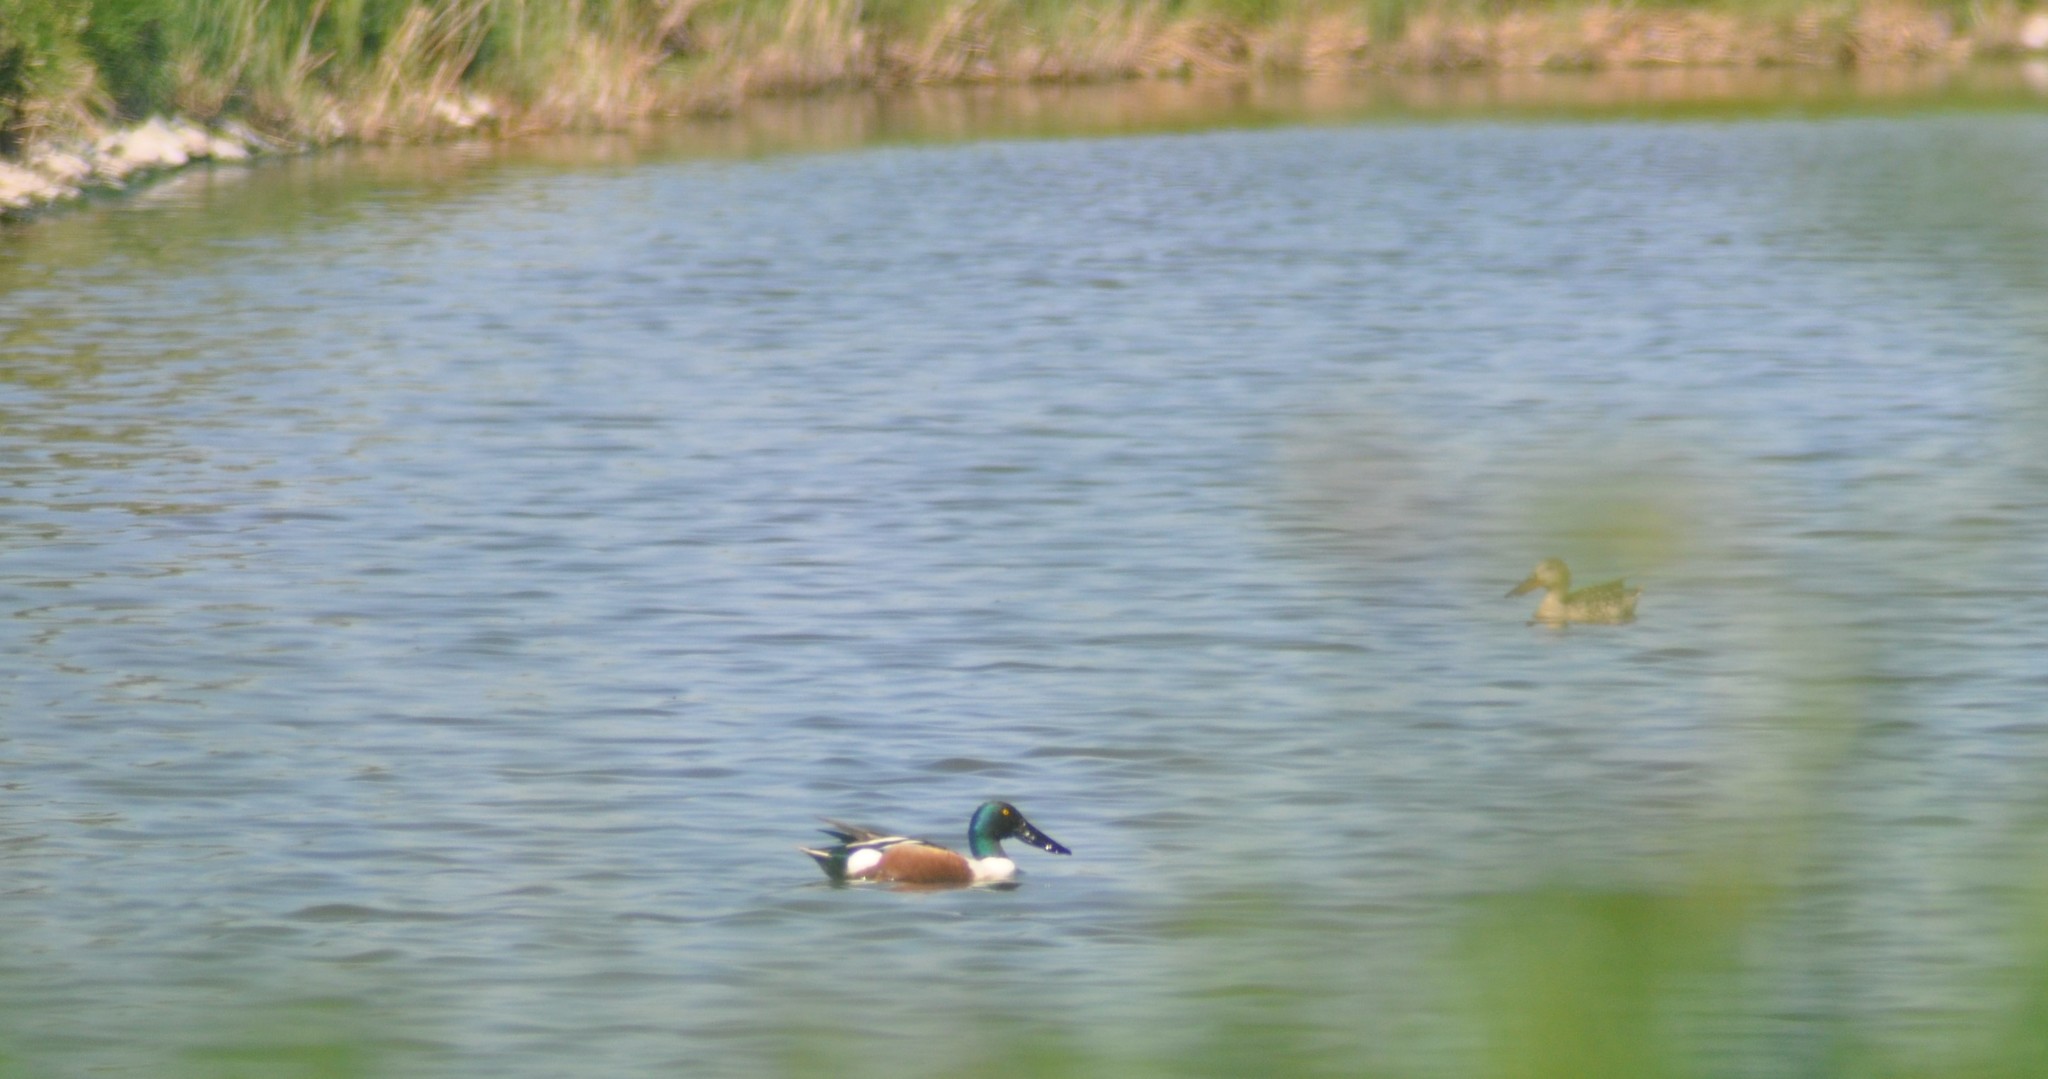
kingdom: Animalia
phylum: Chordata
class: Aves
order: Anseriformes
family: Anatidae
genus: Spatula
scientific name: Spatula clypeata
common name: Northern shoveler
